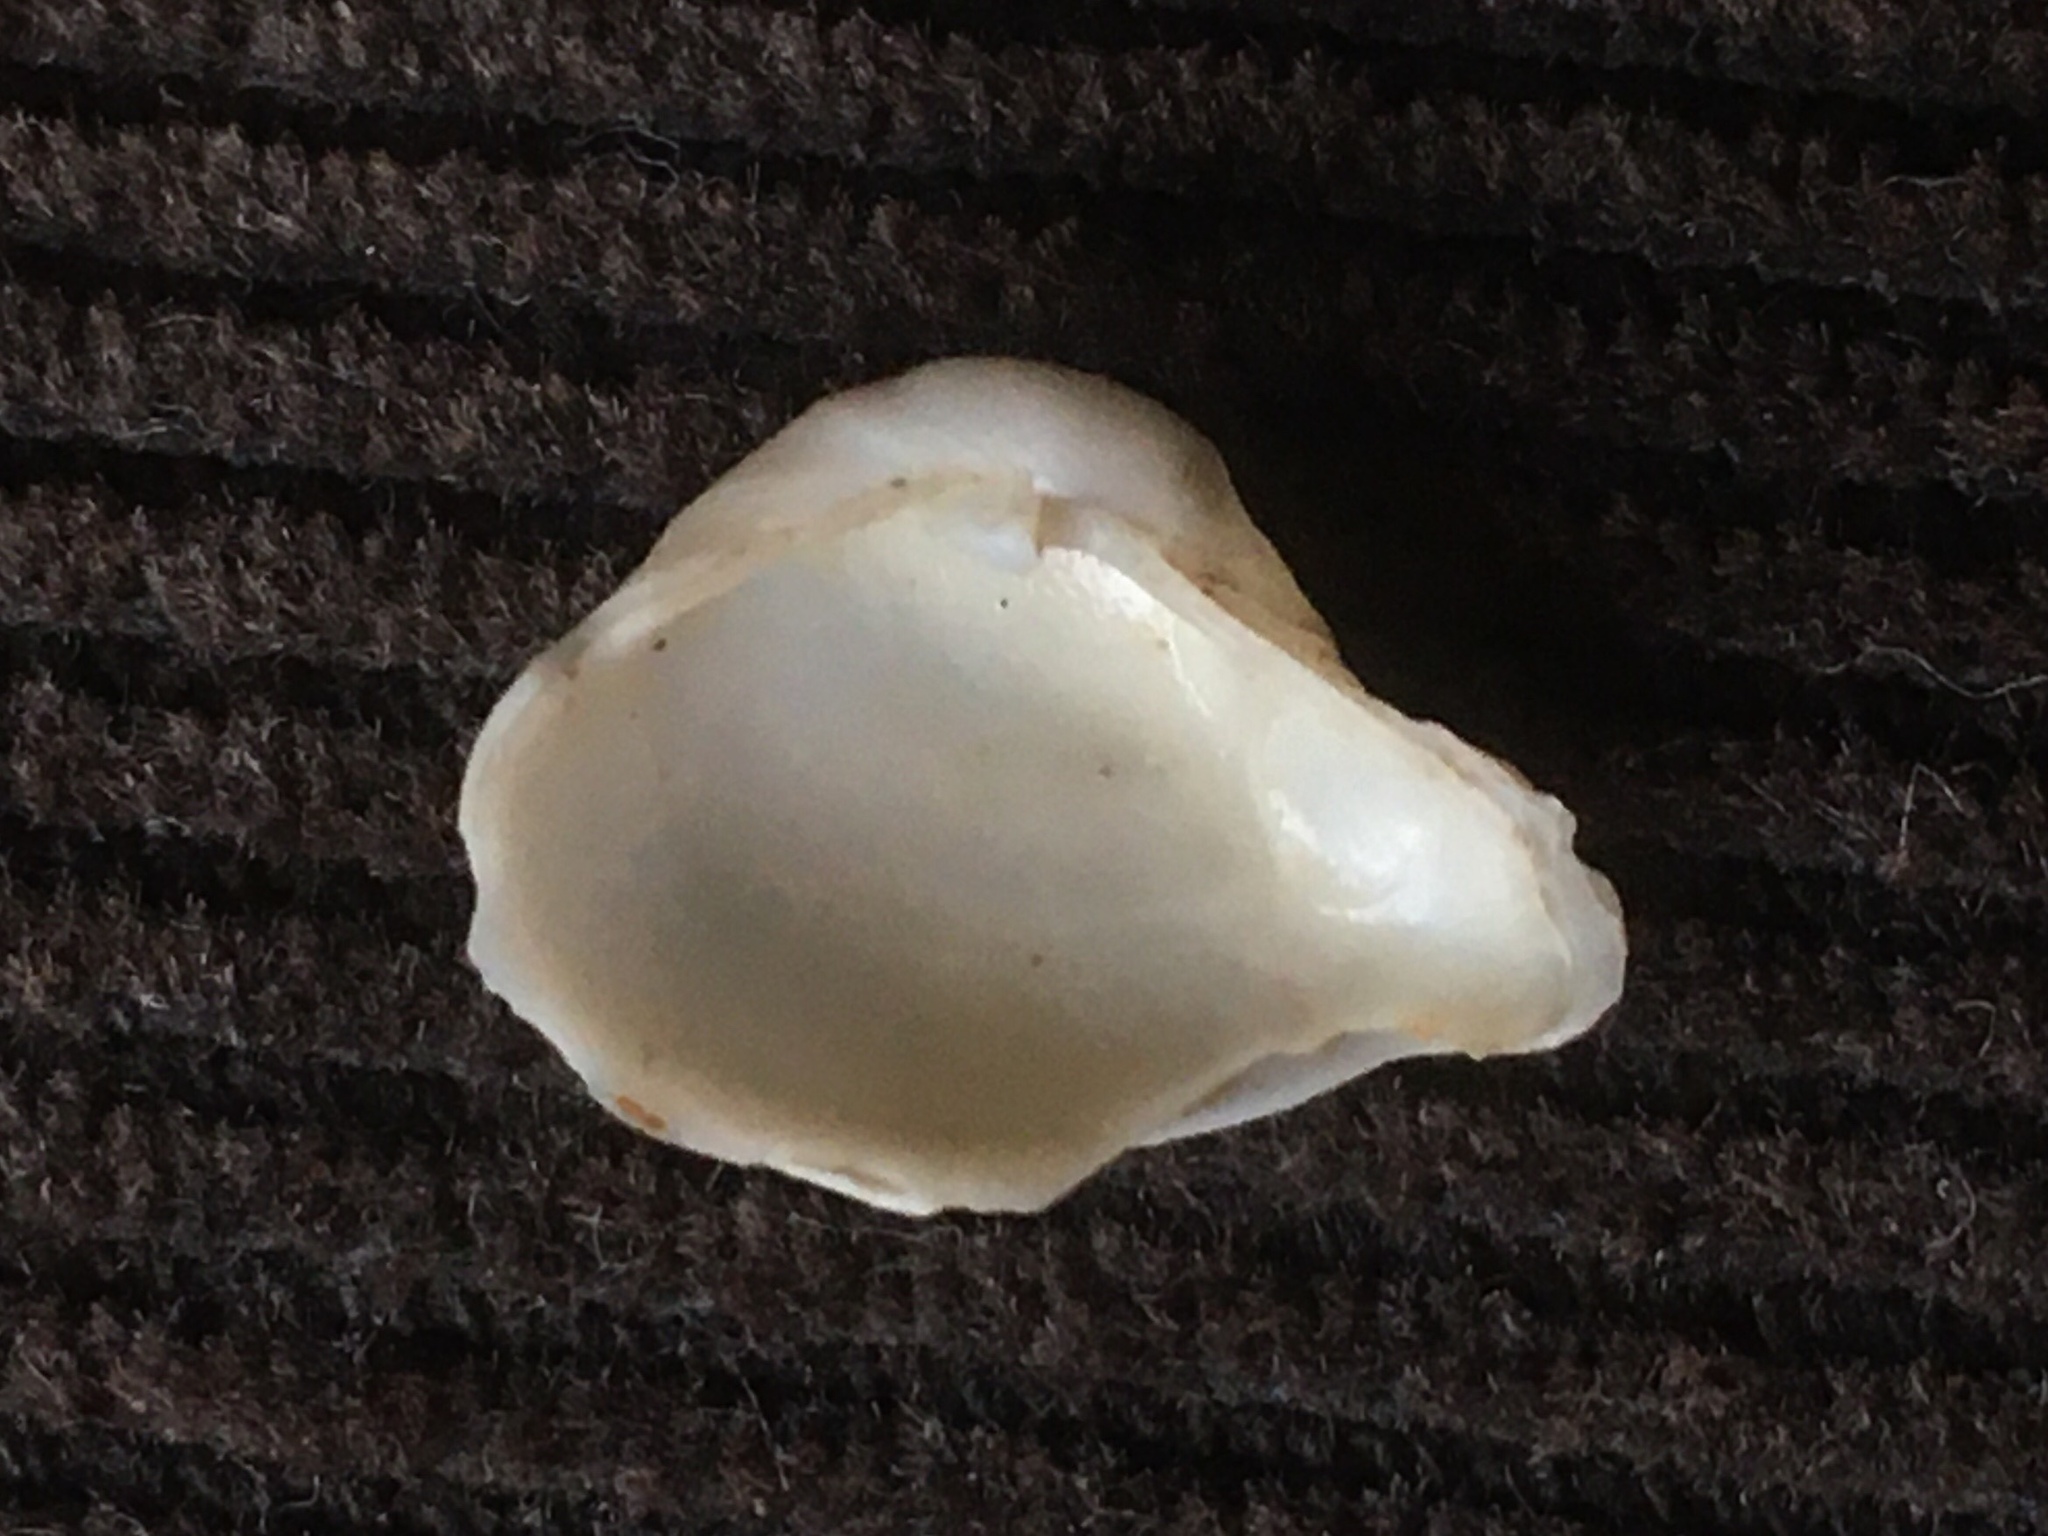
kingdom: Animalia
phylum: Mollusca
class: Bivalvia
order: Myida
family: Corbulidae
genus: Corbula
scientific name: Corbula patagonica
